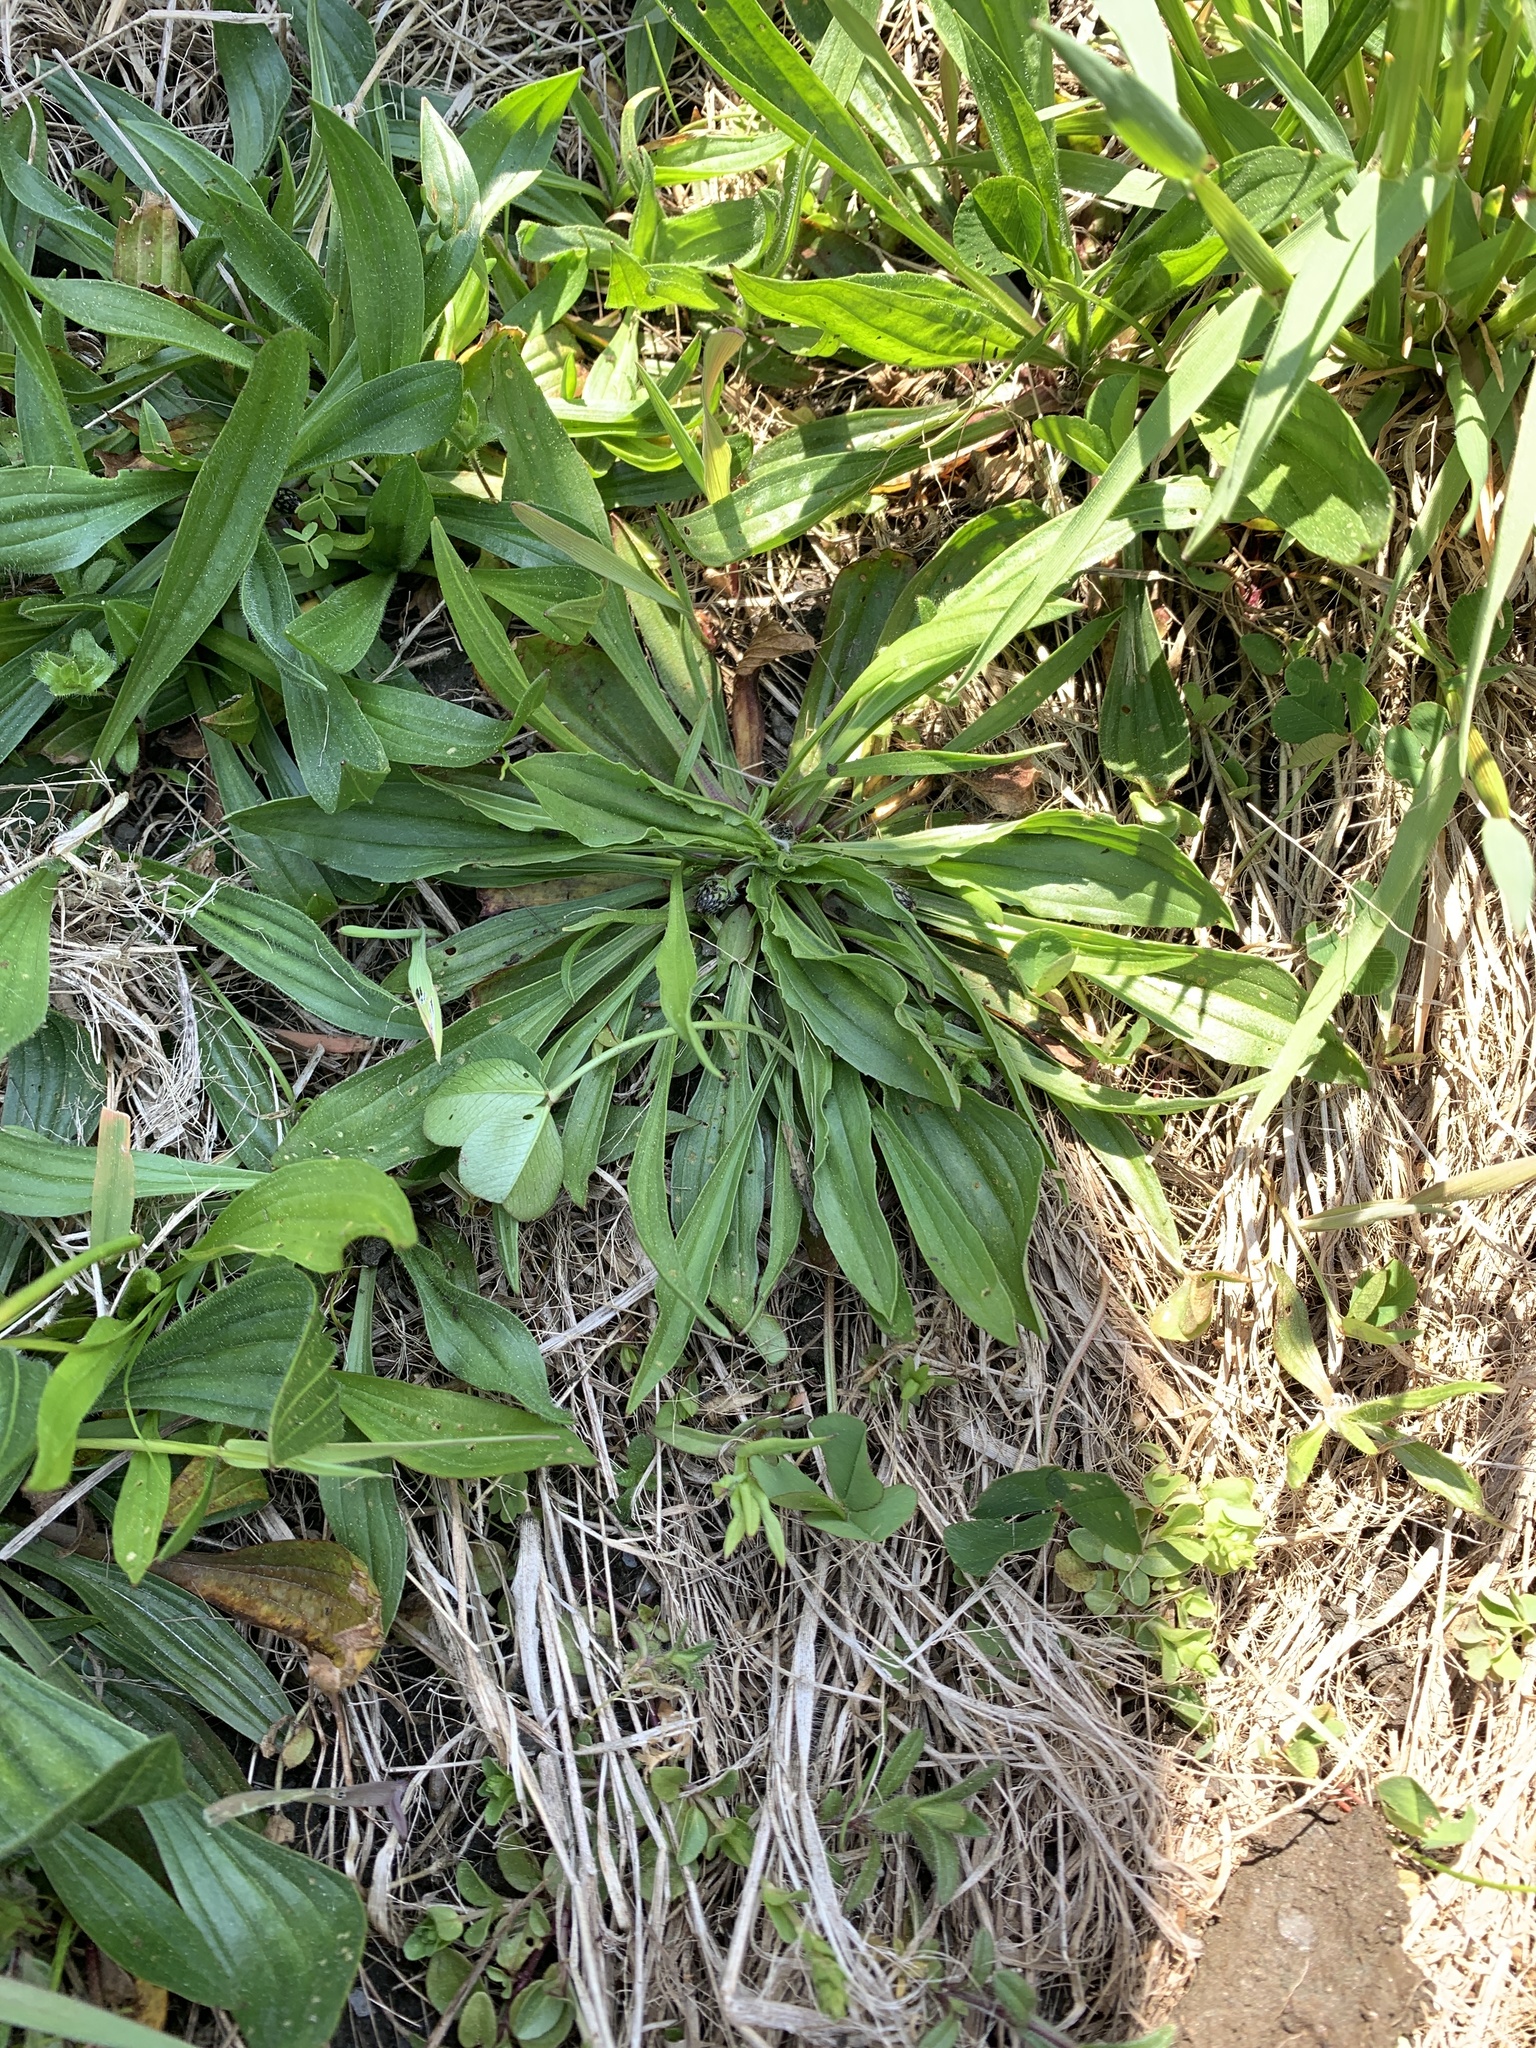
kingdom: Plantae
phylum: Tracheophyta
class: Magnoliopsida
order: Lamiales
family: Plantaginaceae
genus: Plantago
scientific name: Plantago rugelii
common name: American plantain
